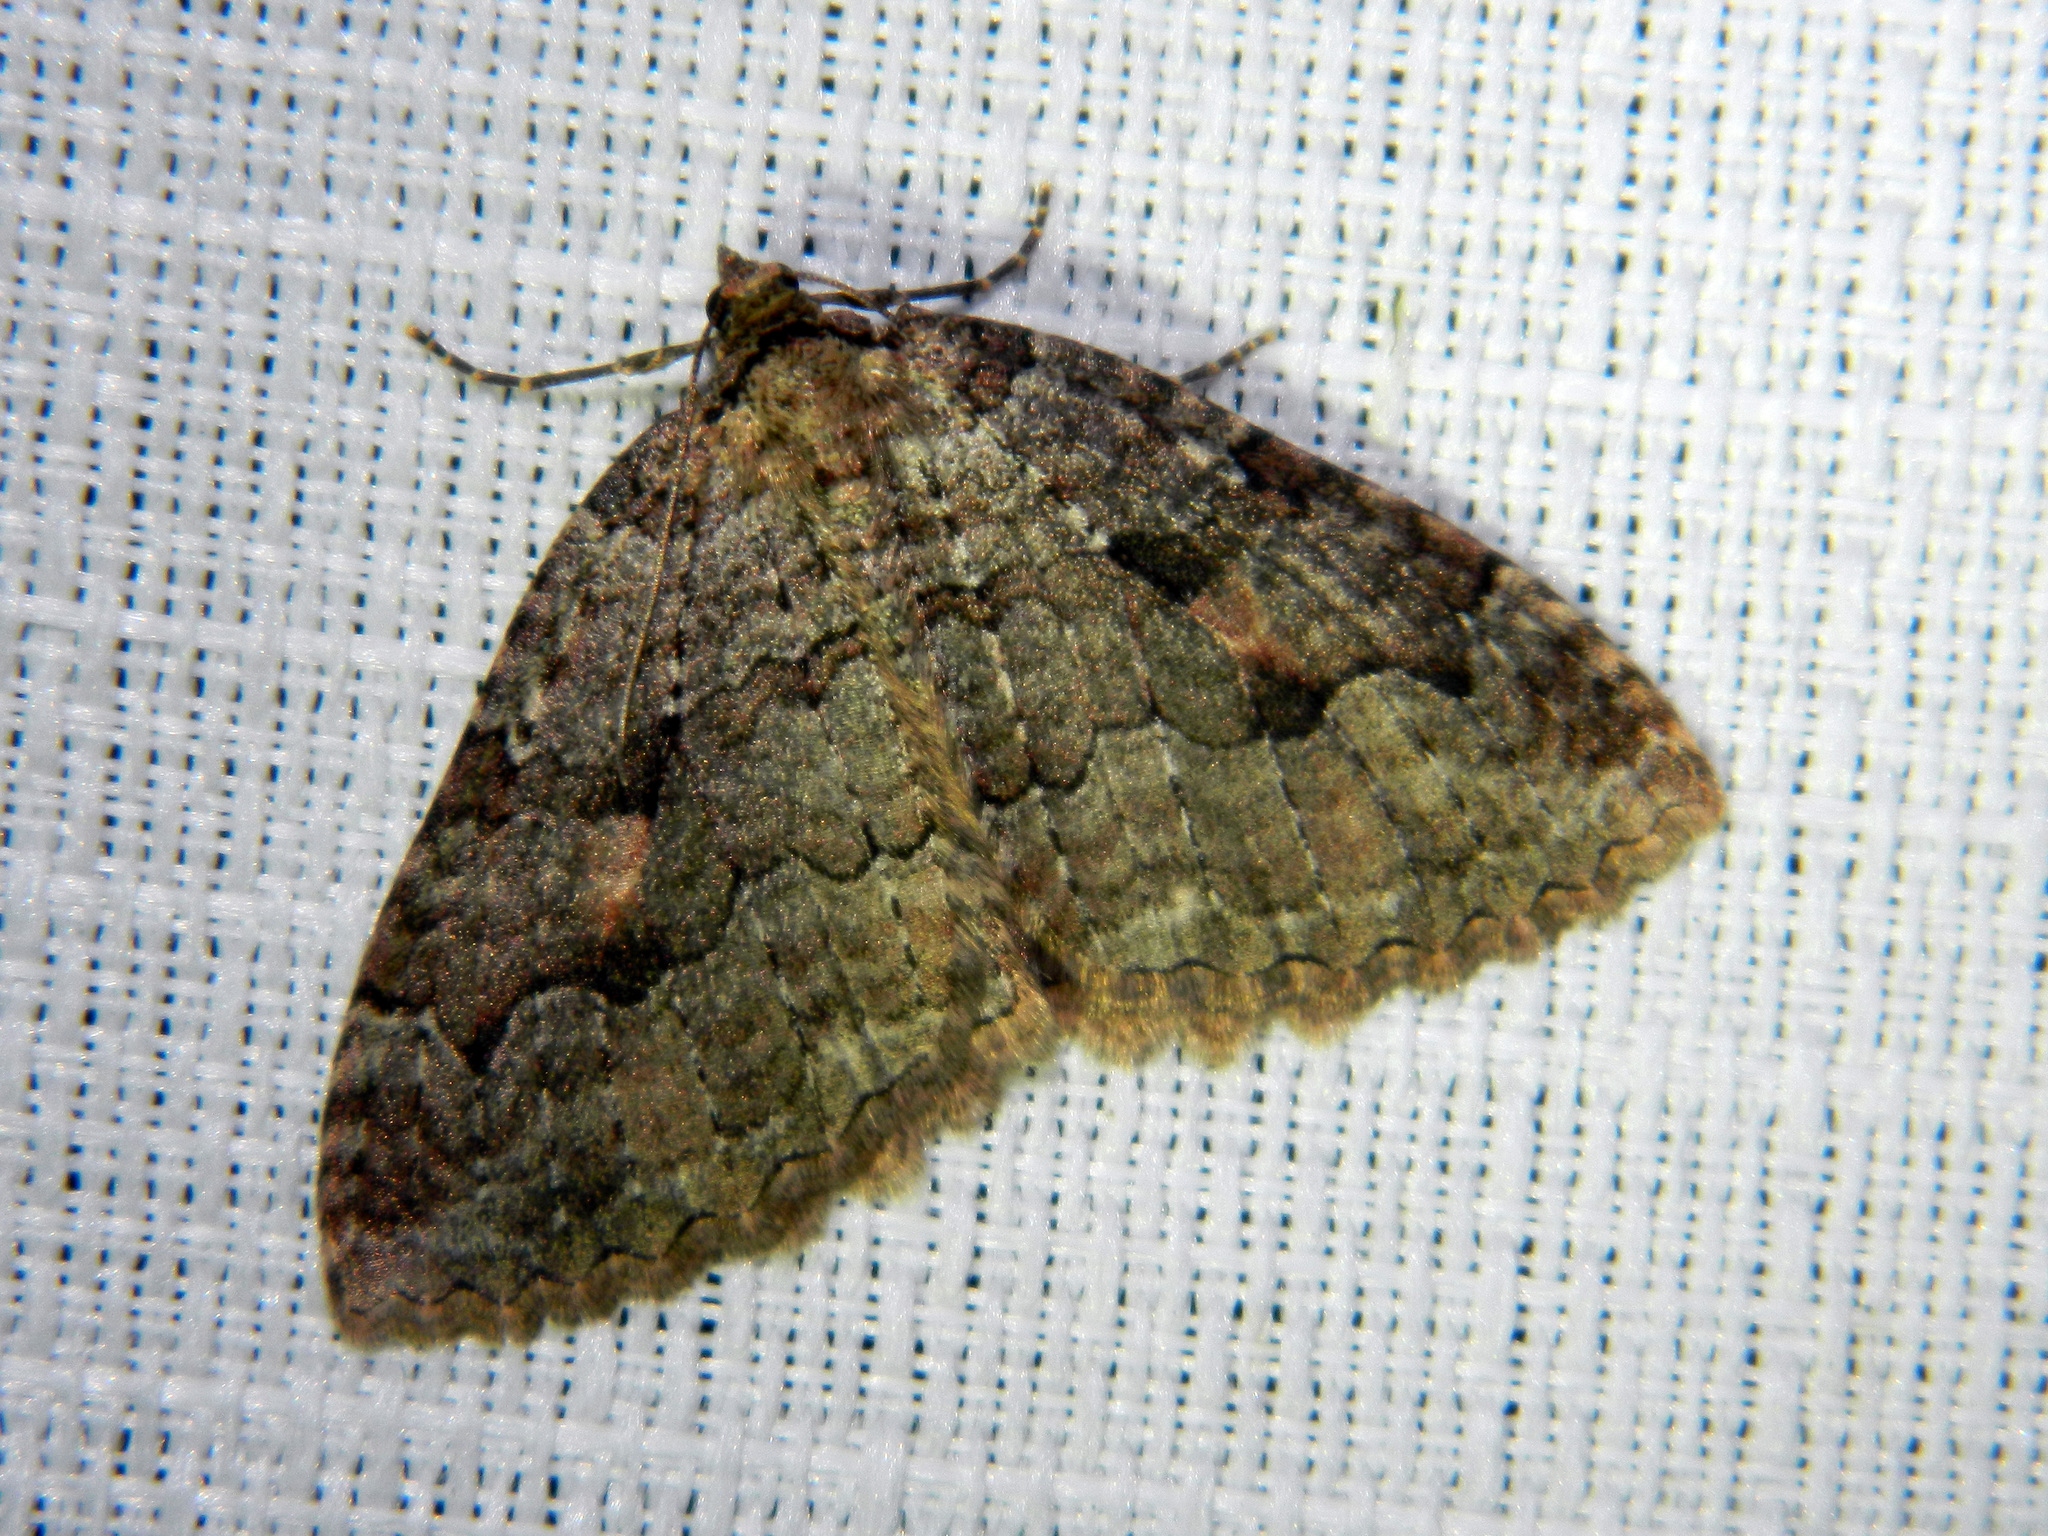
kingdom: Animalia
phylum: Arthropoda
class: Insecta
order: Lepidoptera
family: Geometridae
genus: Triphosa
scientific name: Triphosa haesitata
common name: Tissue moth
